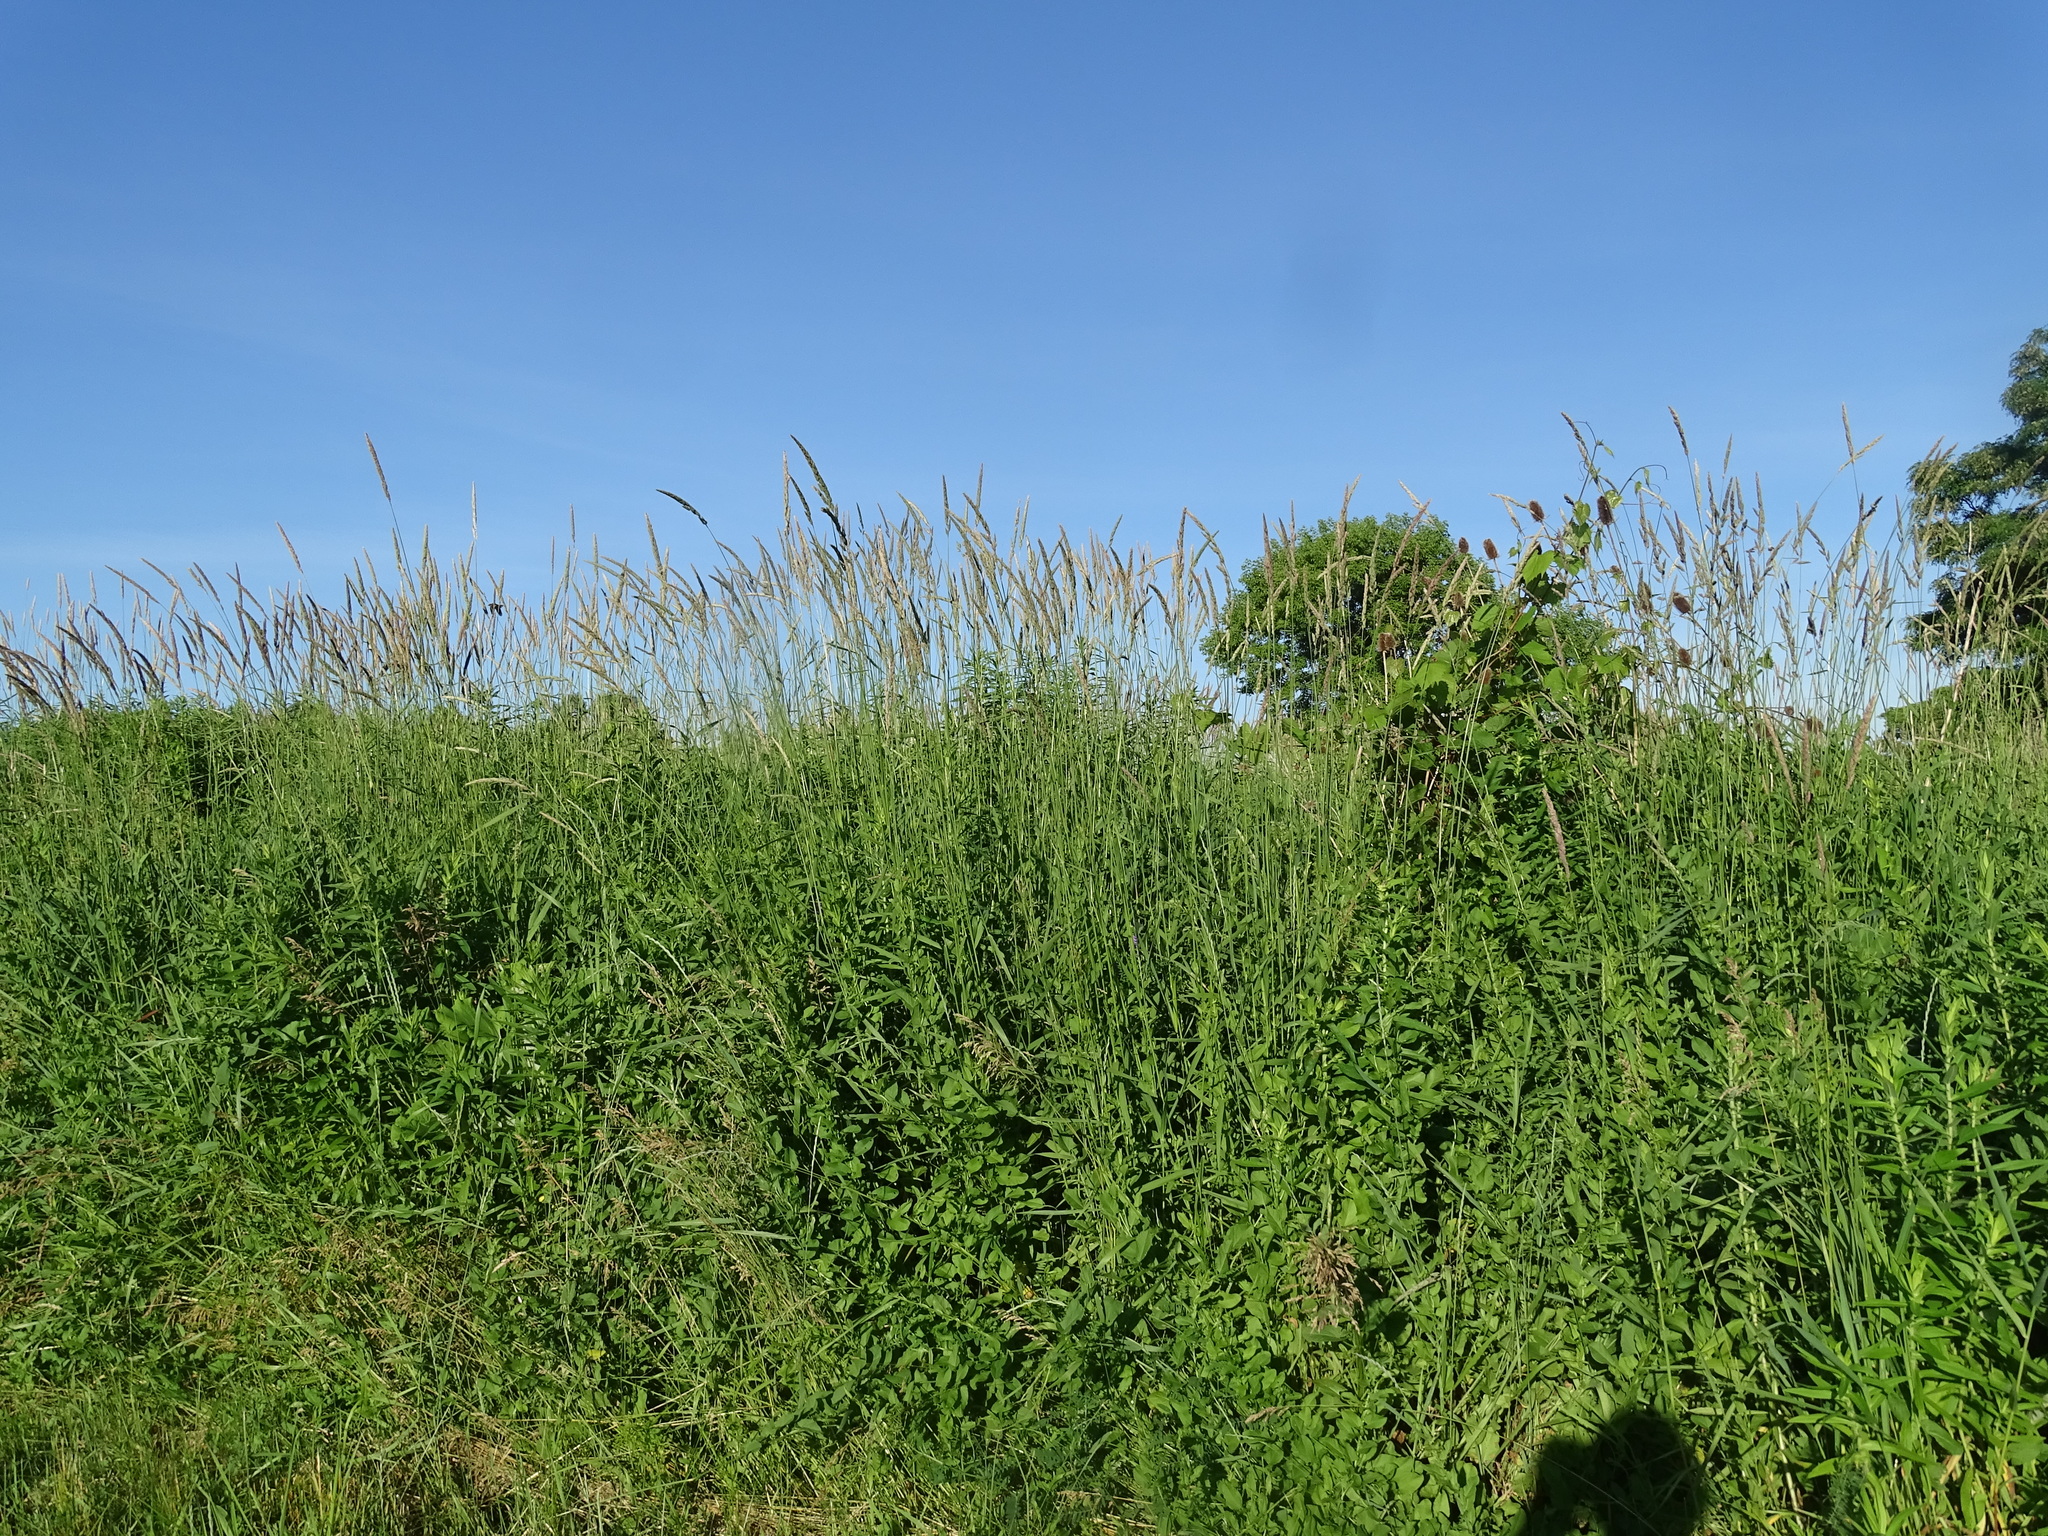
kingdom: Plantae
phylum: Tracheophyta
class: Liliopsida
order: Poales
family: Poaceae
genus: Phalaris
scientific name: Phalaris arundinacea
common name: Reed canary-grass
